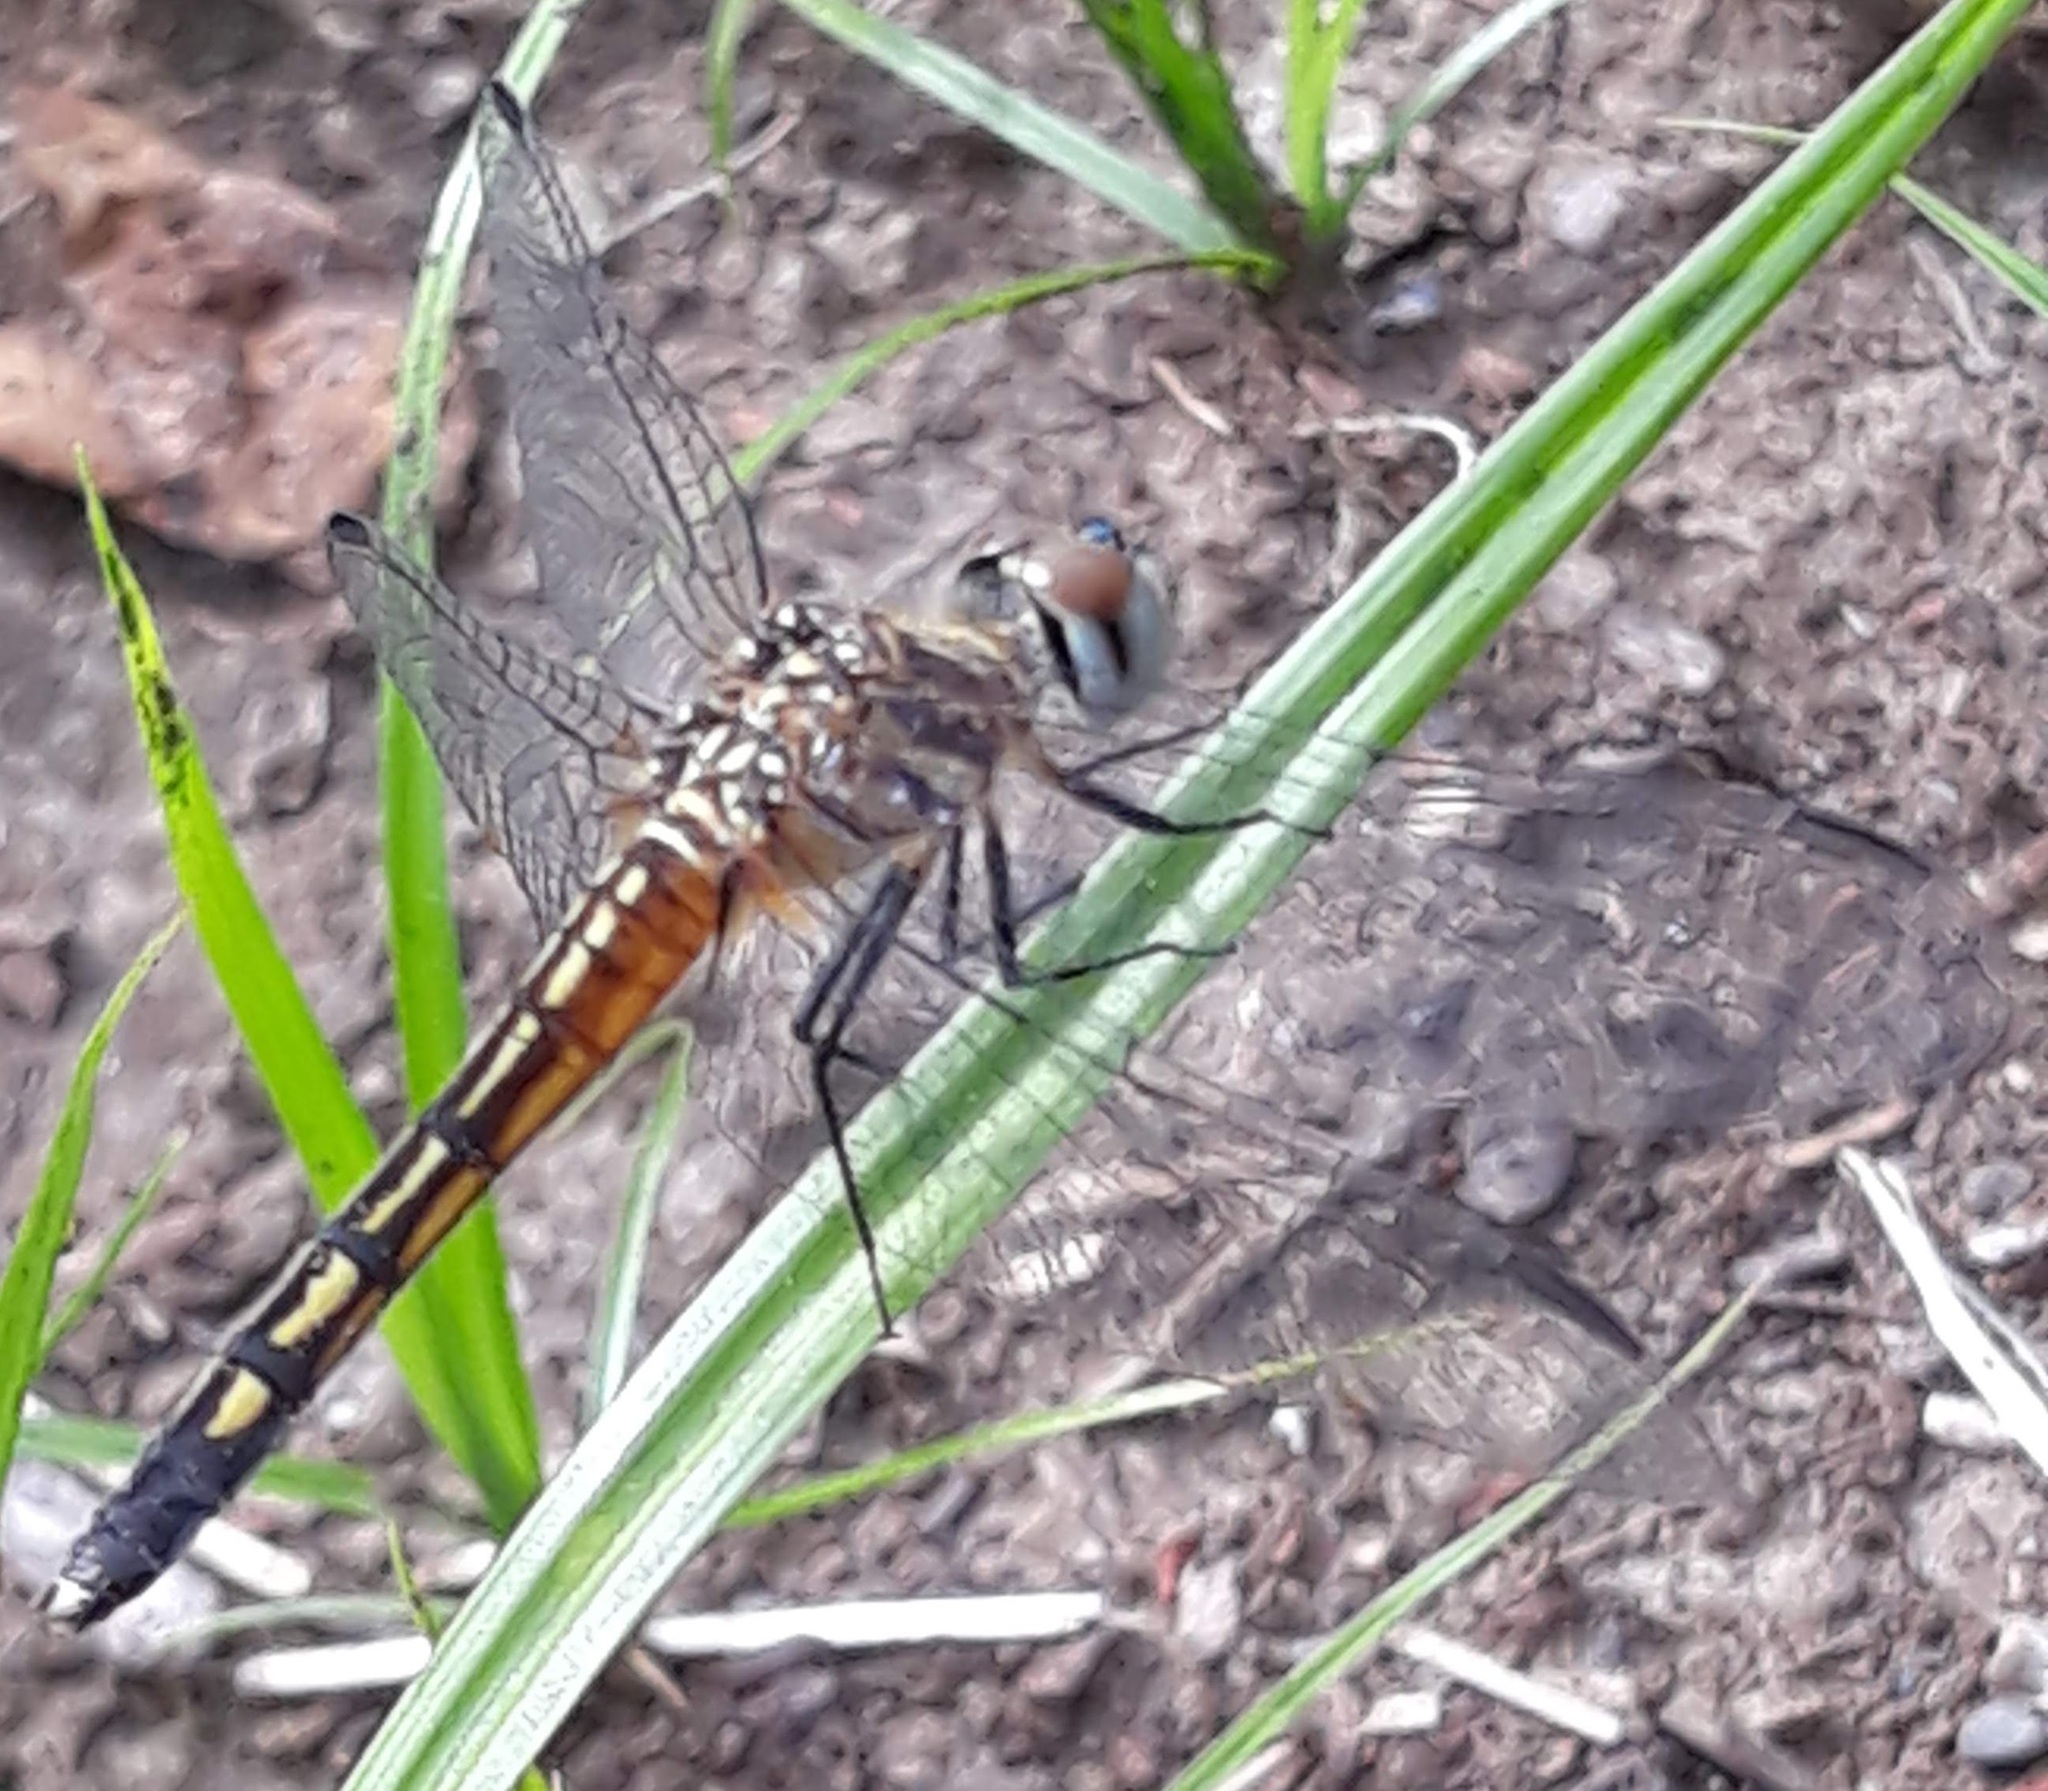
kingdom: Animalia
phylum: Arthropoda
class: Insecta
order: Odonata
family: Libellulidae
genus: Pachydiplax
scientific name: Pachydiplax longipennis
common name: Blue dasher
